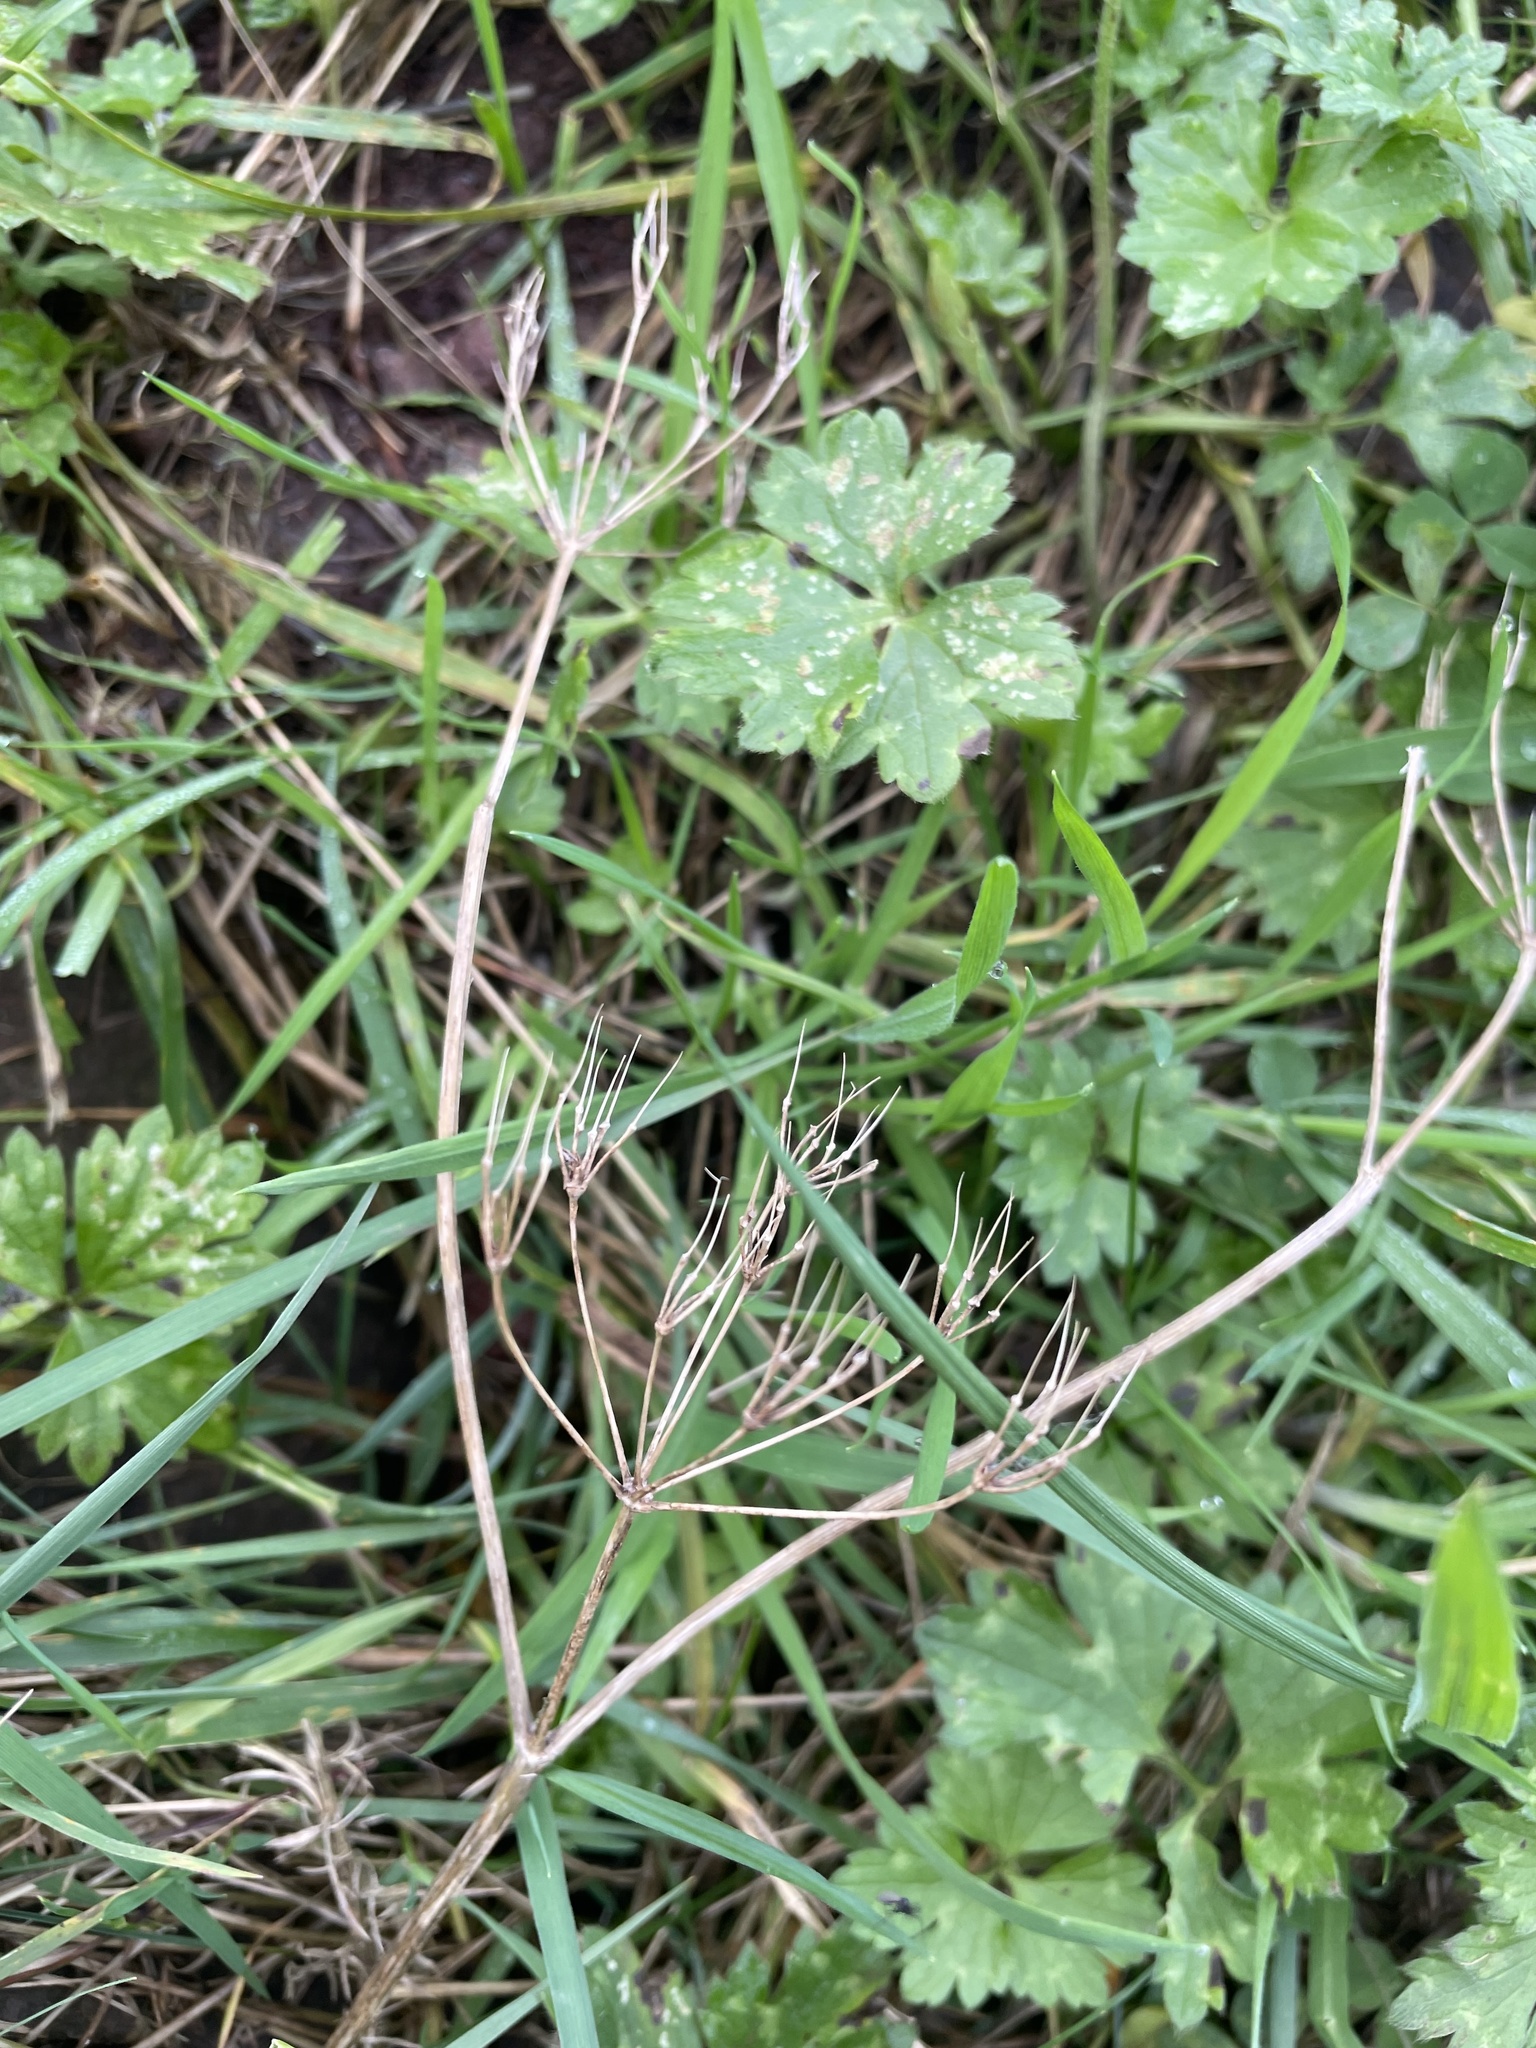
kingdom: Plantae
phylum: Tracheophyta
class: Magnoliopsida
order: Ranunculales
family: Ranunculaceae
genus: Ranunculus
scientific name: Ranunculus repens
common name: Creeping buttercup
